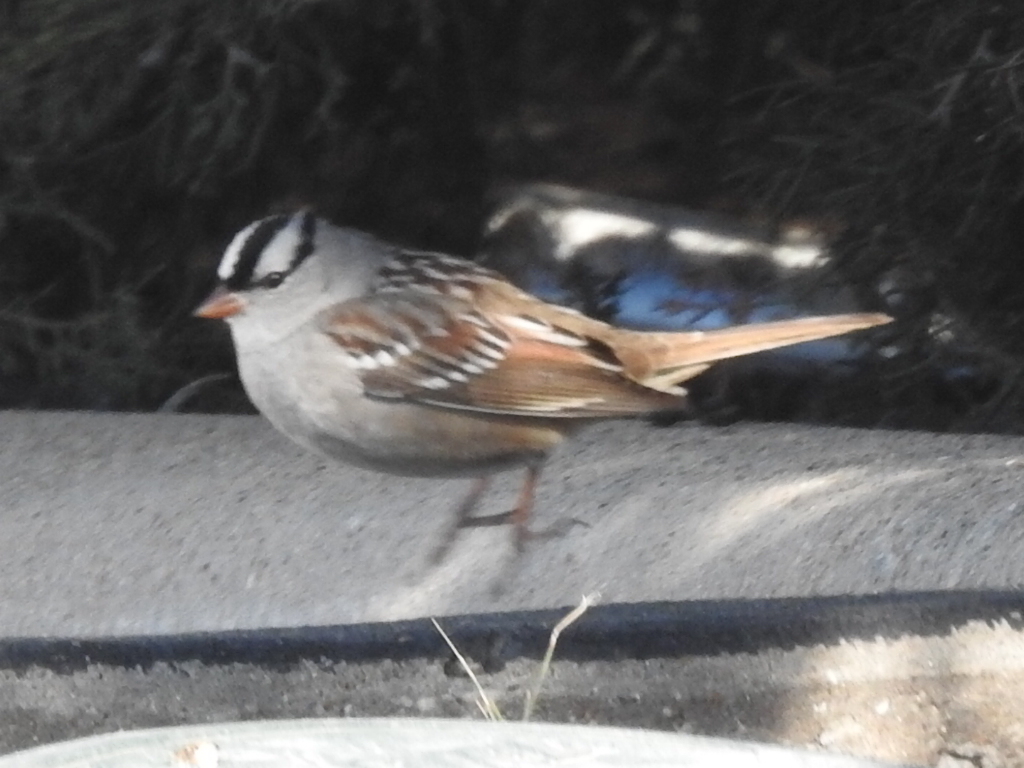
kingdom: Animalia
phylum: Chordata
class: Aves
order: Passeriformes
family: Passerellidae
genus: Zonotrichia
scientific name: Zonotrichia leucophrys
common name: White-crowned sparrow
